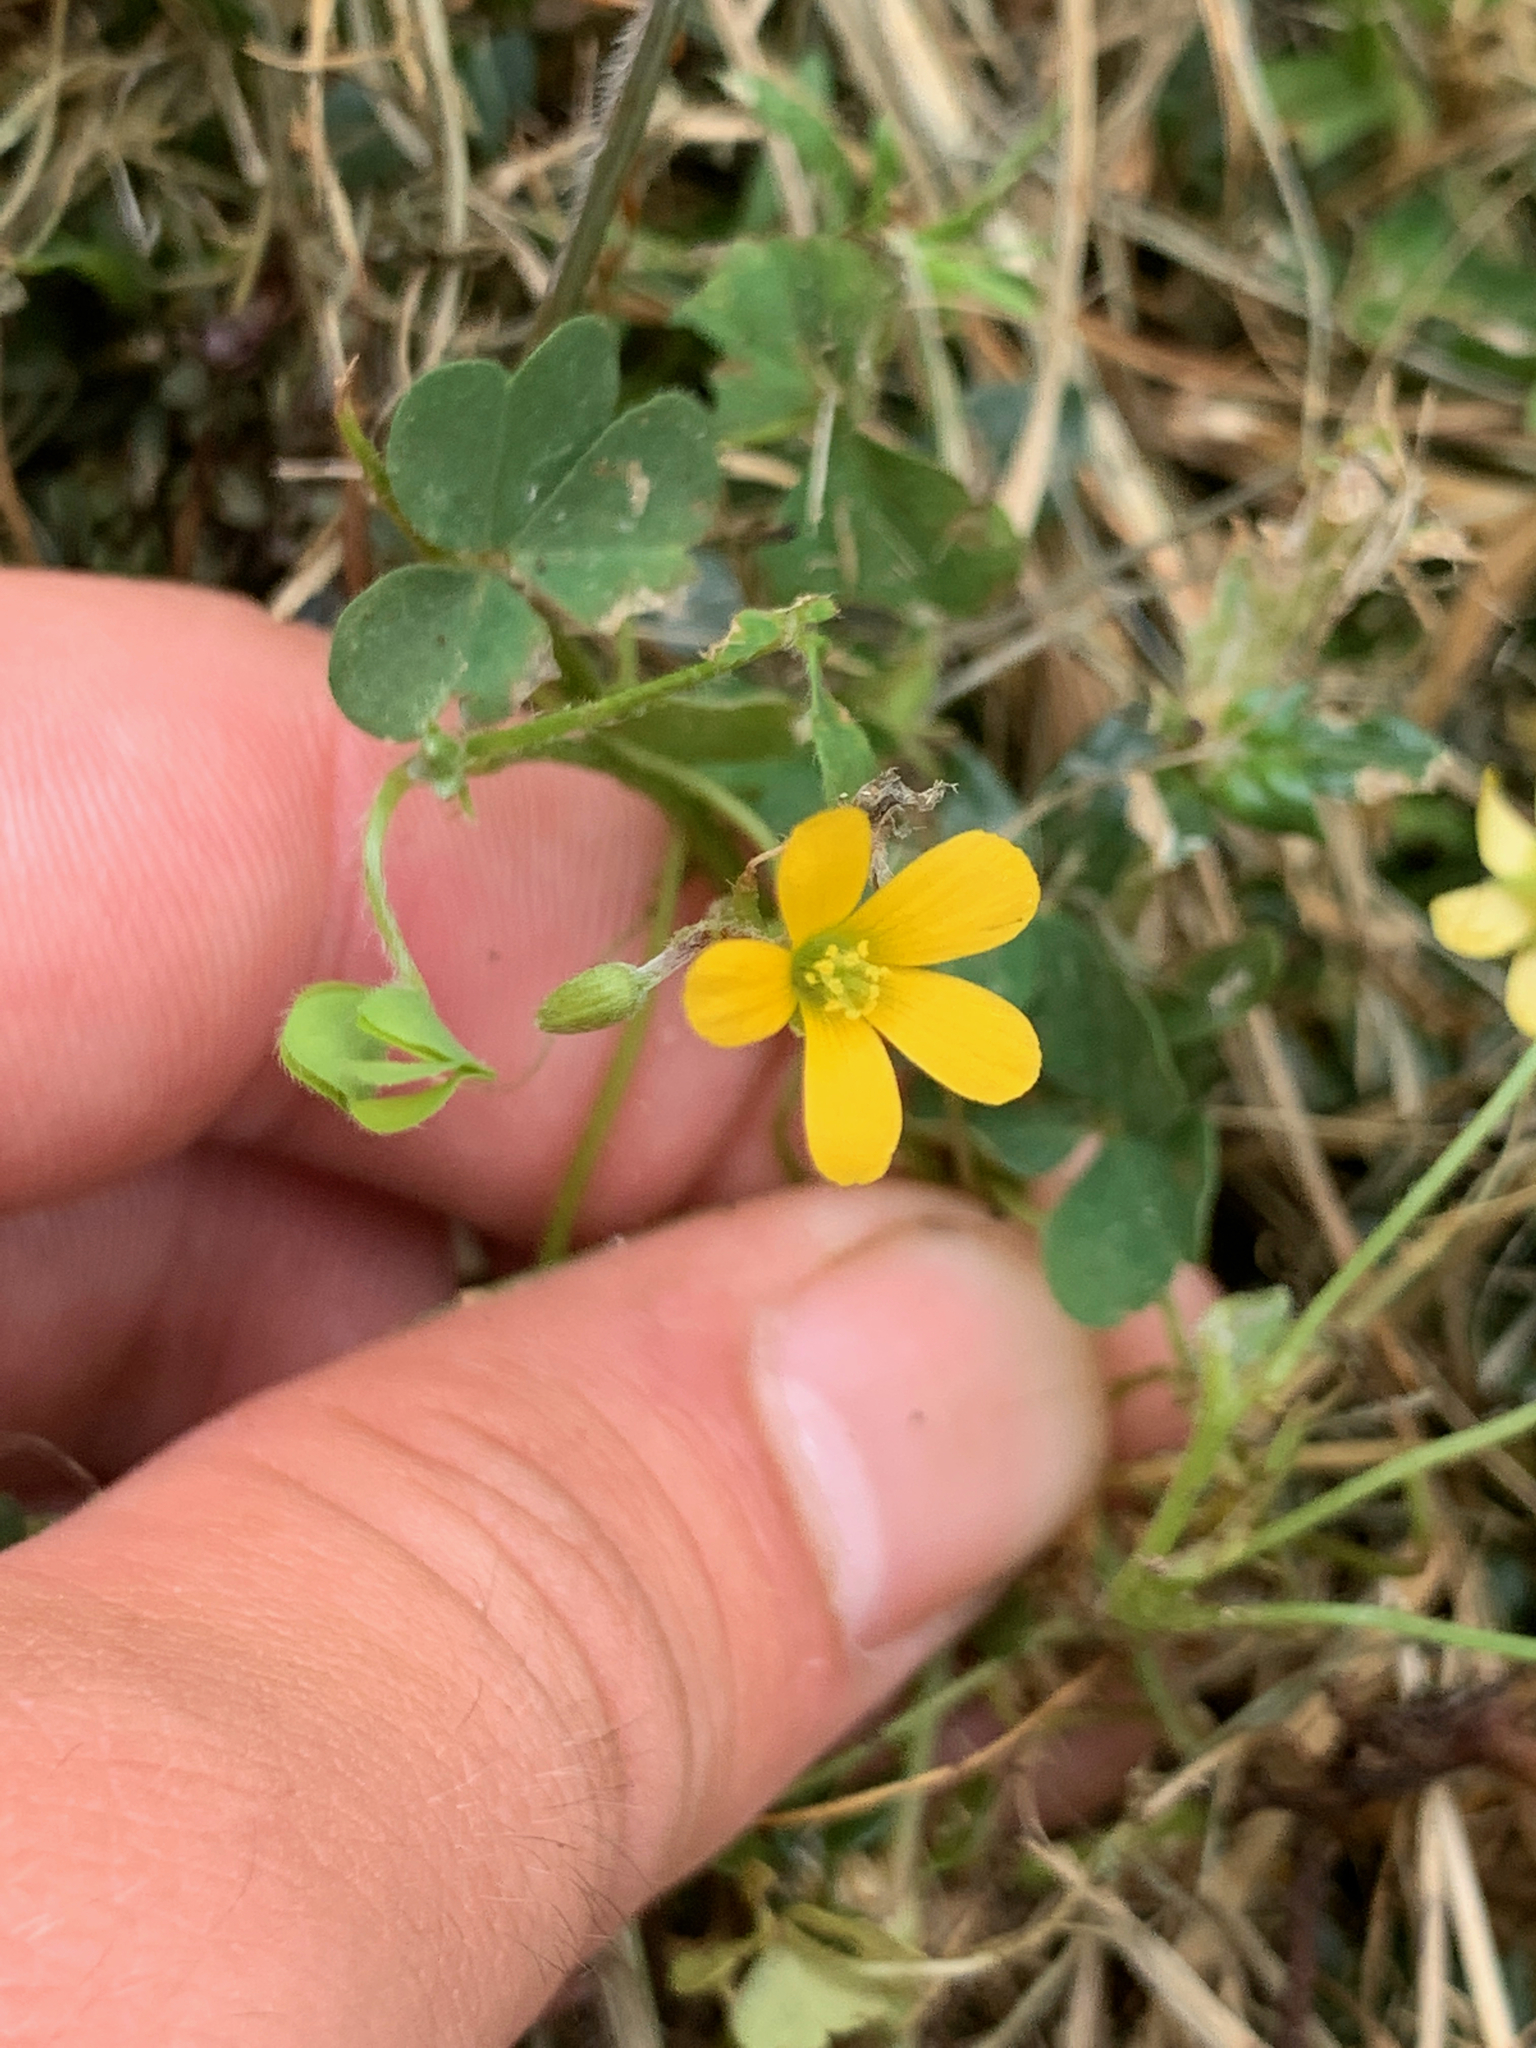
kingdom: Plantae
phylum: Tracheophyta
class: Magnoliopsida
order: Oxalidales
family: Oxalidaceae
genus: Oxalis
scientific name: Oxalis corniculata
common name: Procumbent yellow-sorrel
